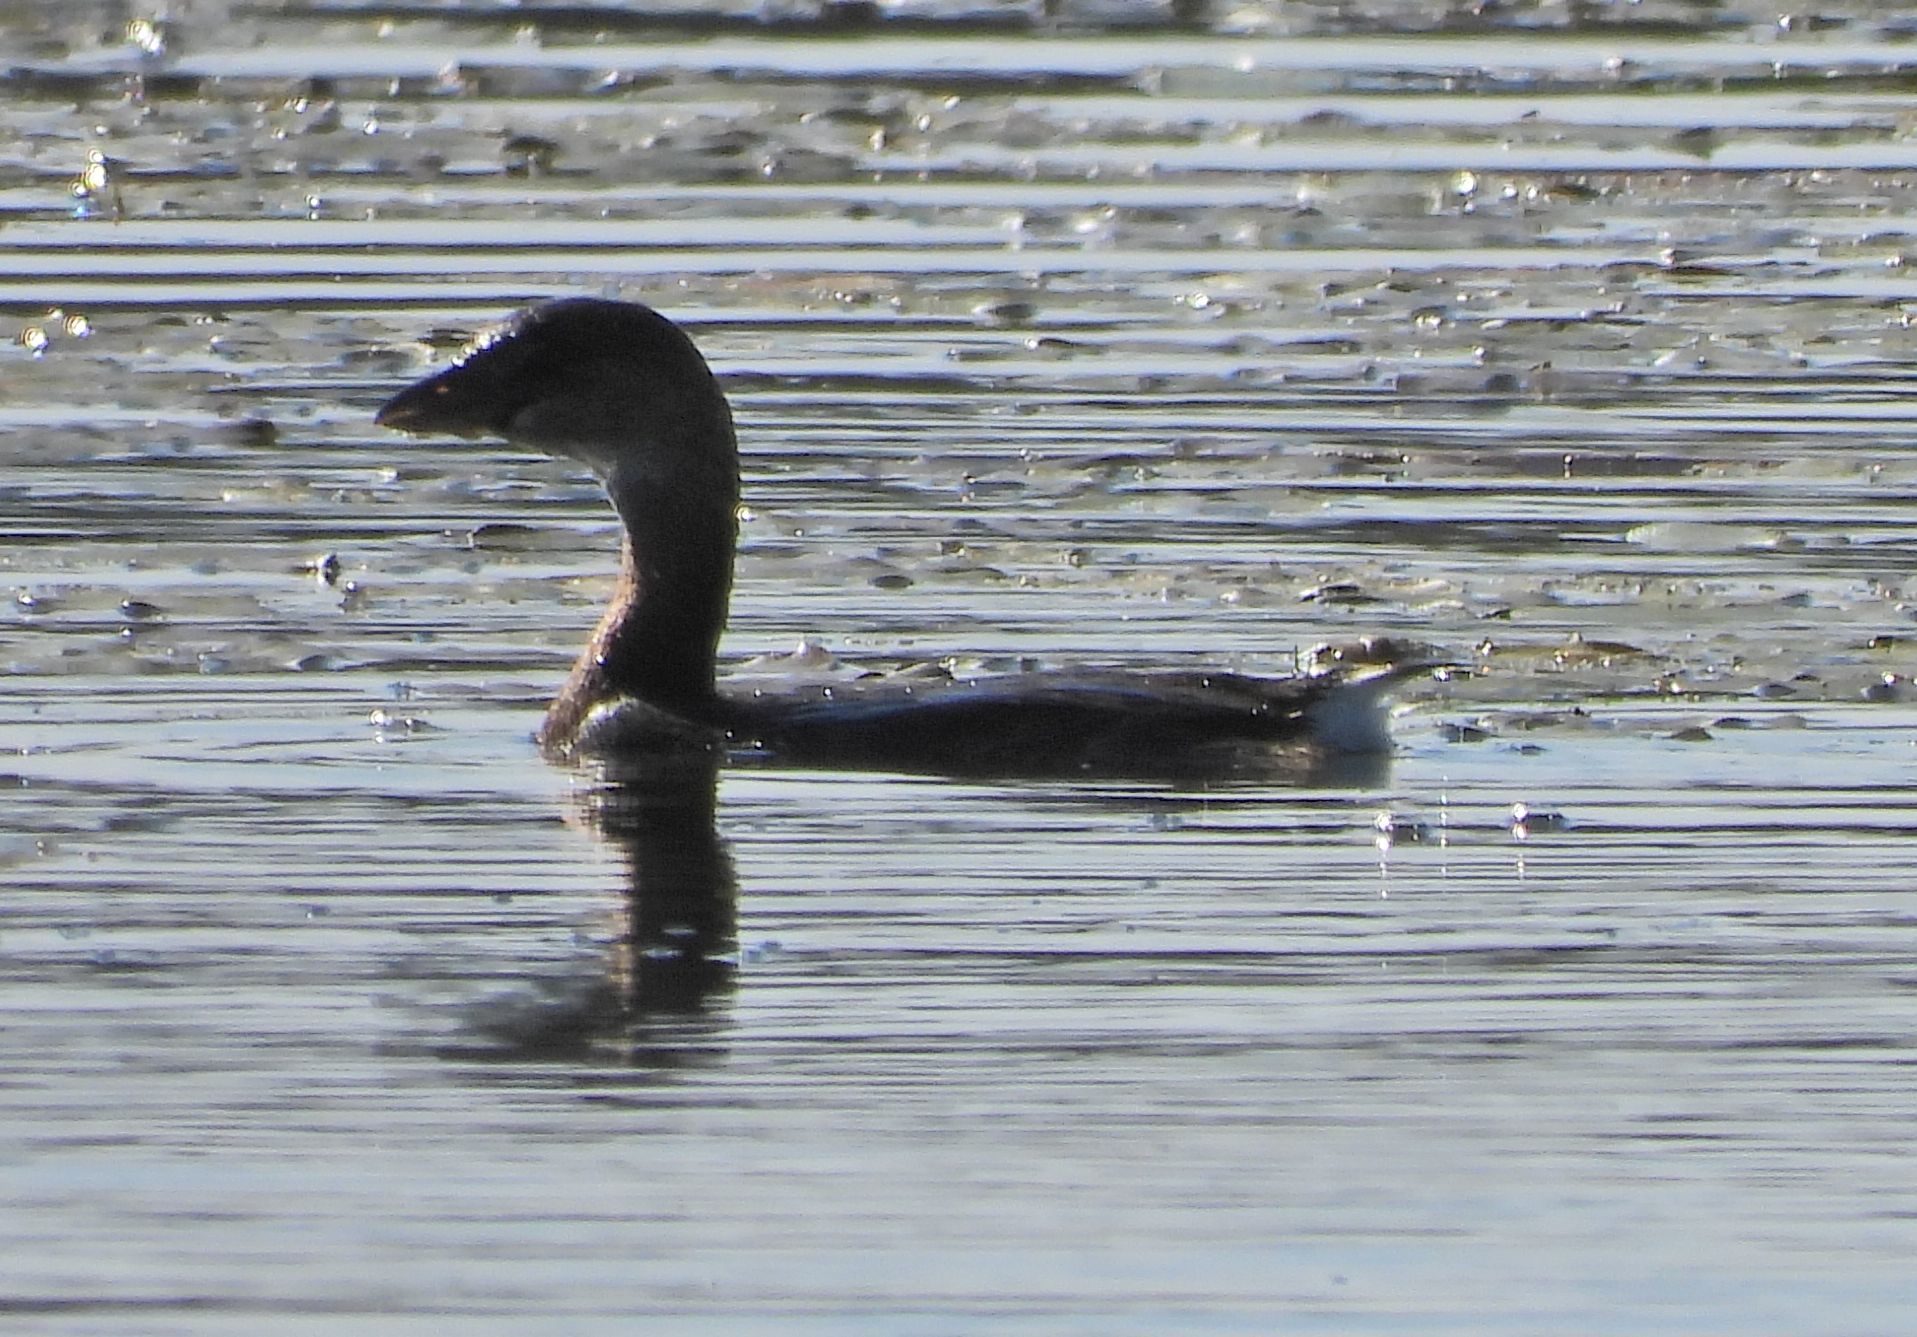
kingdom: Animalia
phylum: Chordata
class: Aves
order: Podicipediformes
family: Podicipedidae
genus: Podilymbus
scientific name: Podilymbus podiceps
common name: Pied-billed grebe
